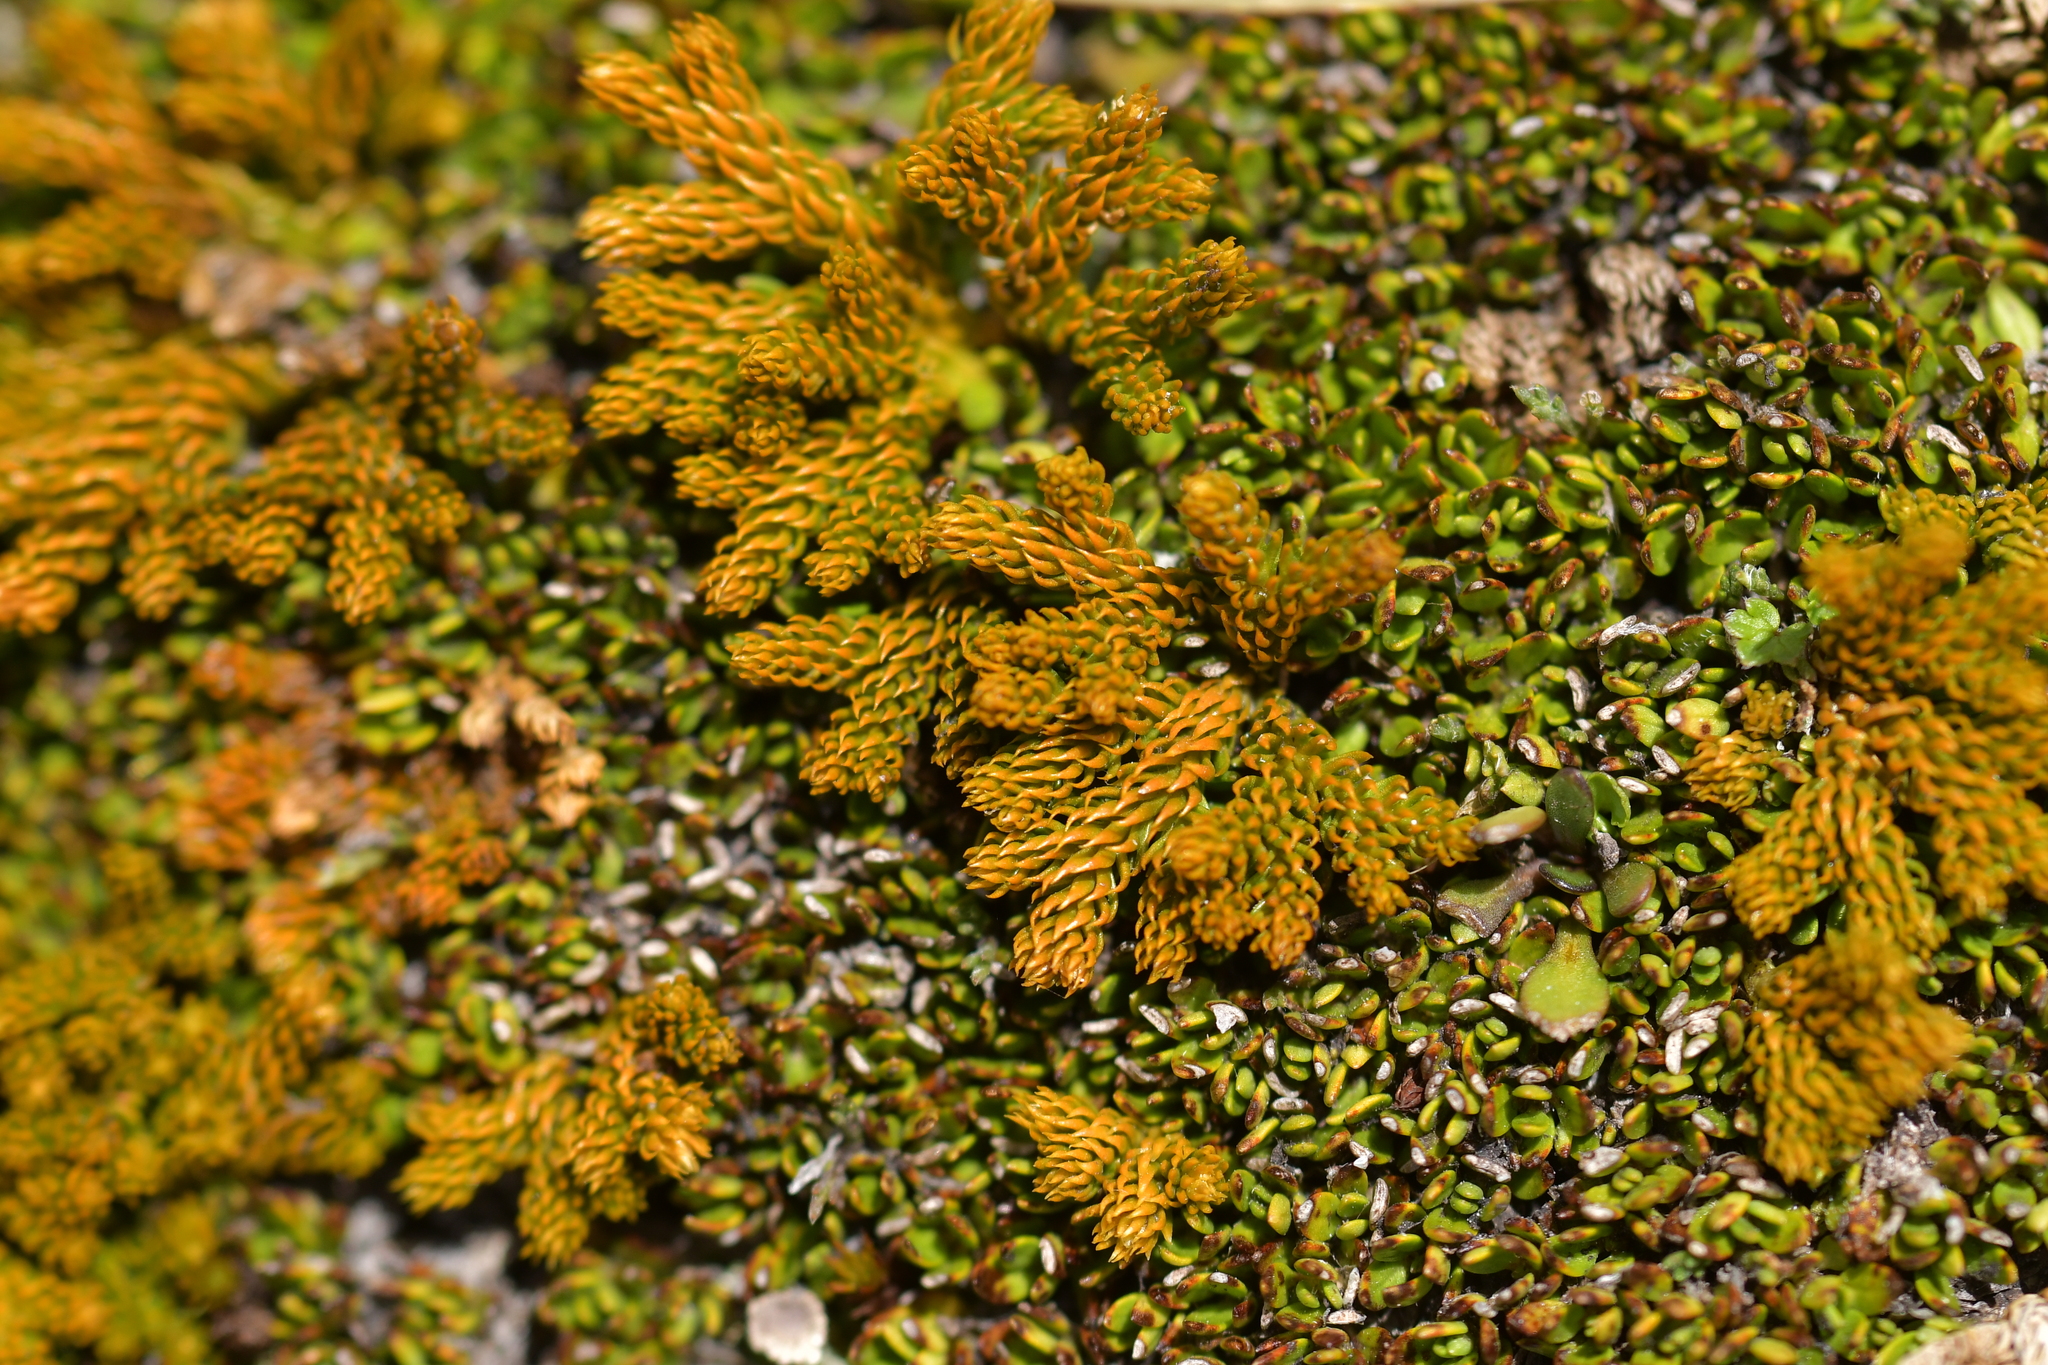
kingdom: Plantae
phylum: Tracheophyta
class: Lycopodiopsida
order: Lycopodiales
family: Lycopodiaceae
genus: Austrolycopodium
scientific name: Austrolycopodium fastigiatum
